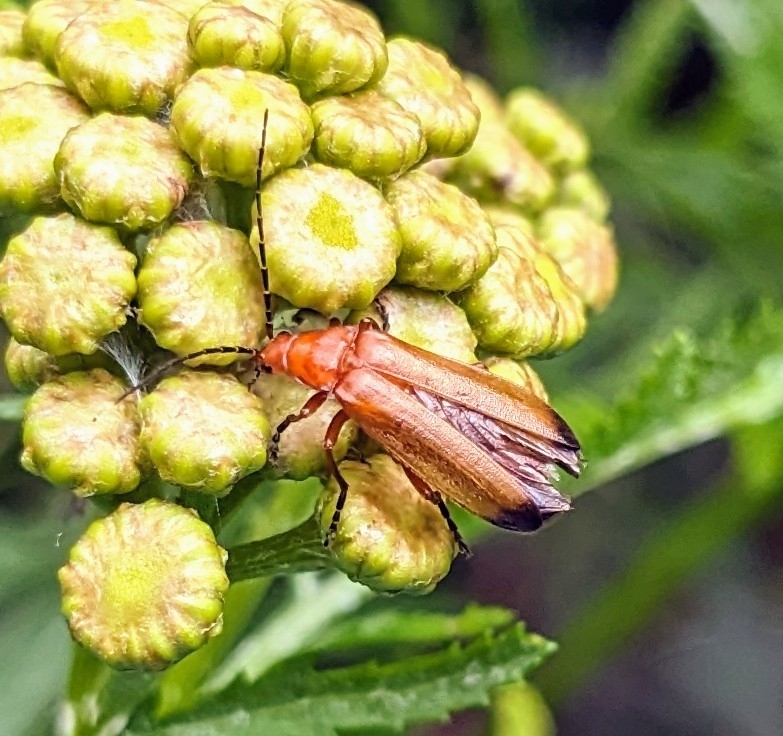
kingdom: Animalia
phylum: Arthropoda
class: Insecta
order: Coleoptera
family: Cantharidae
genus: Rhagonycha
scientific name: Rhagonycha fulva
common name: Common red soldier beetle
